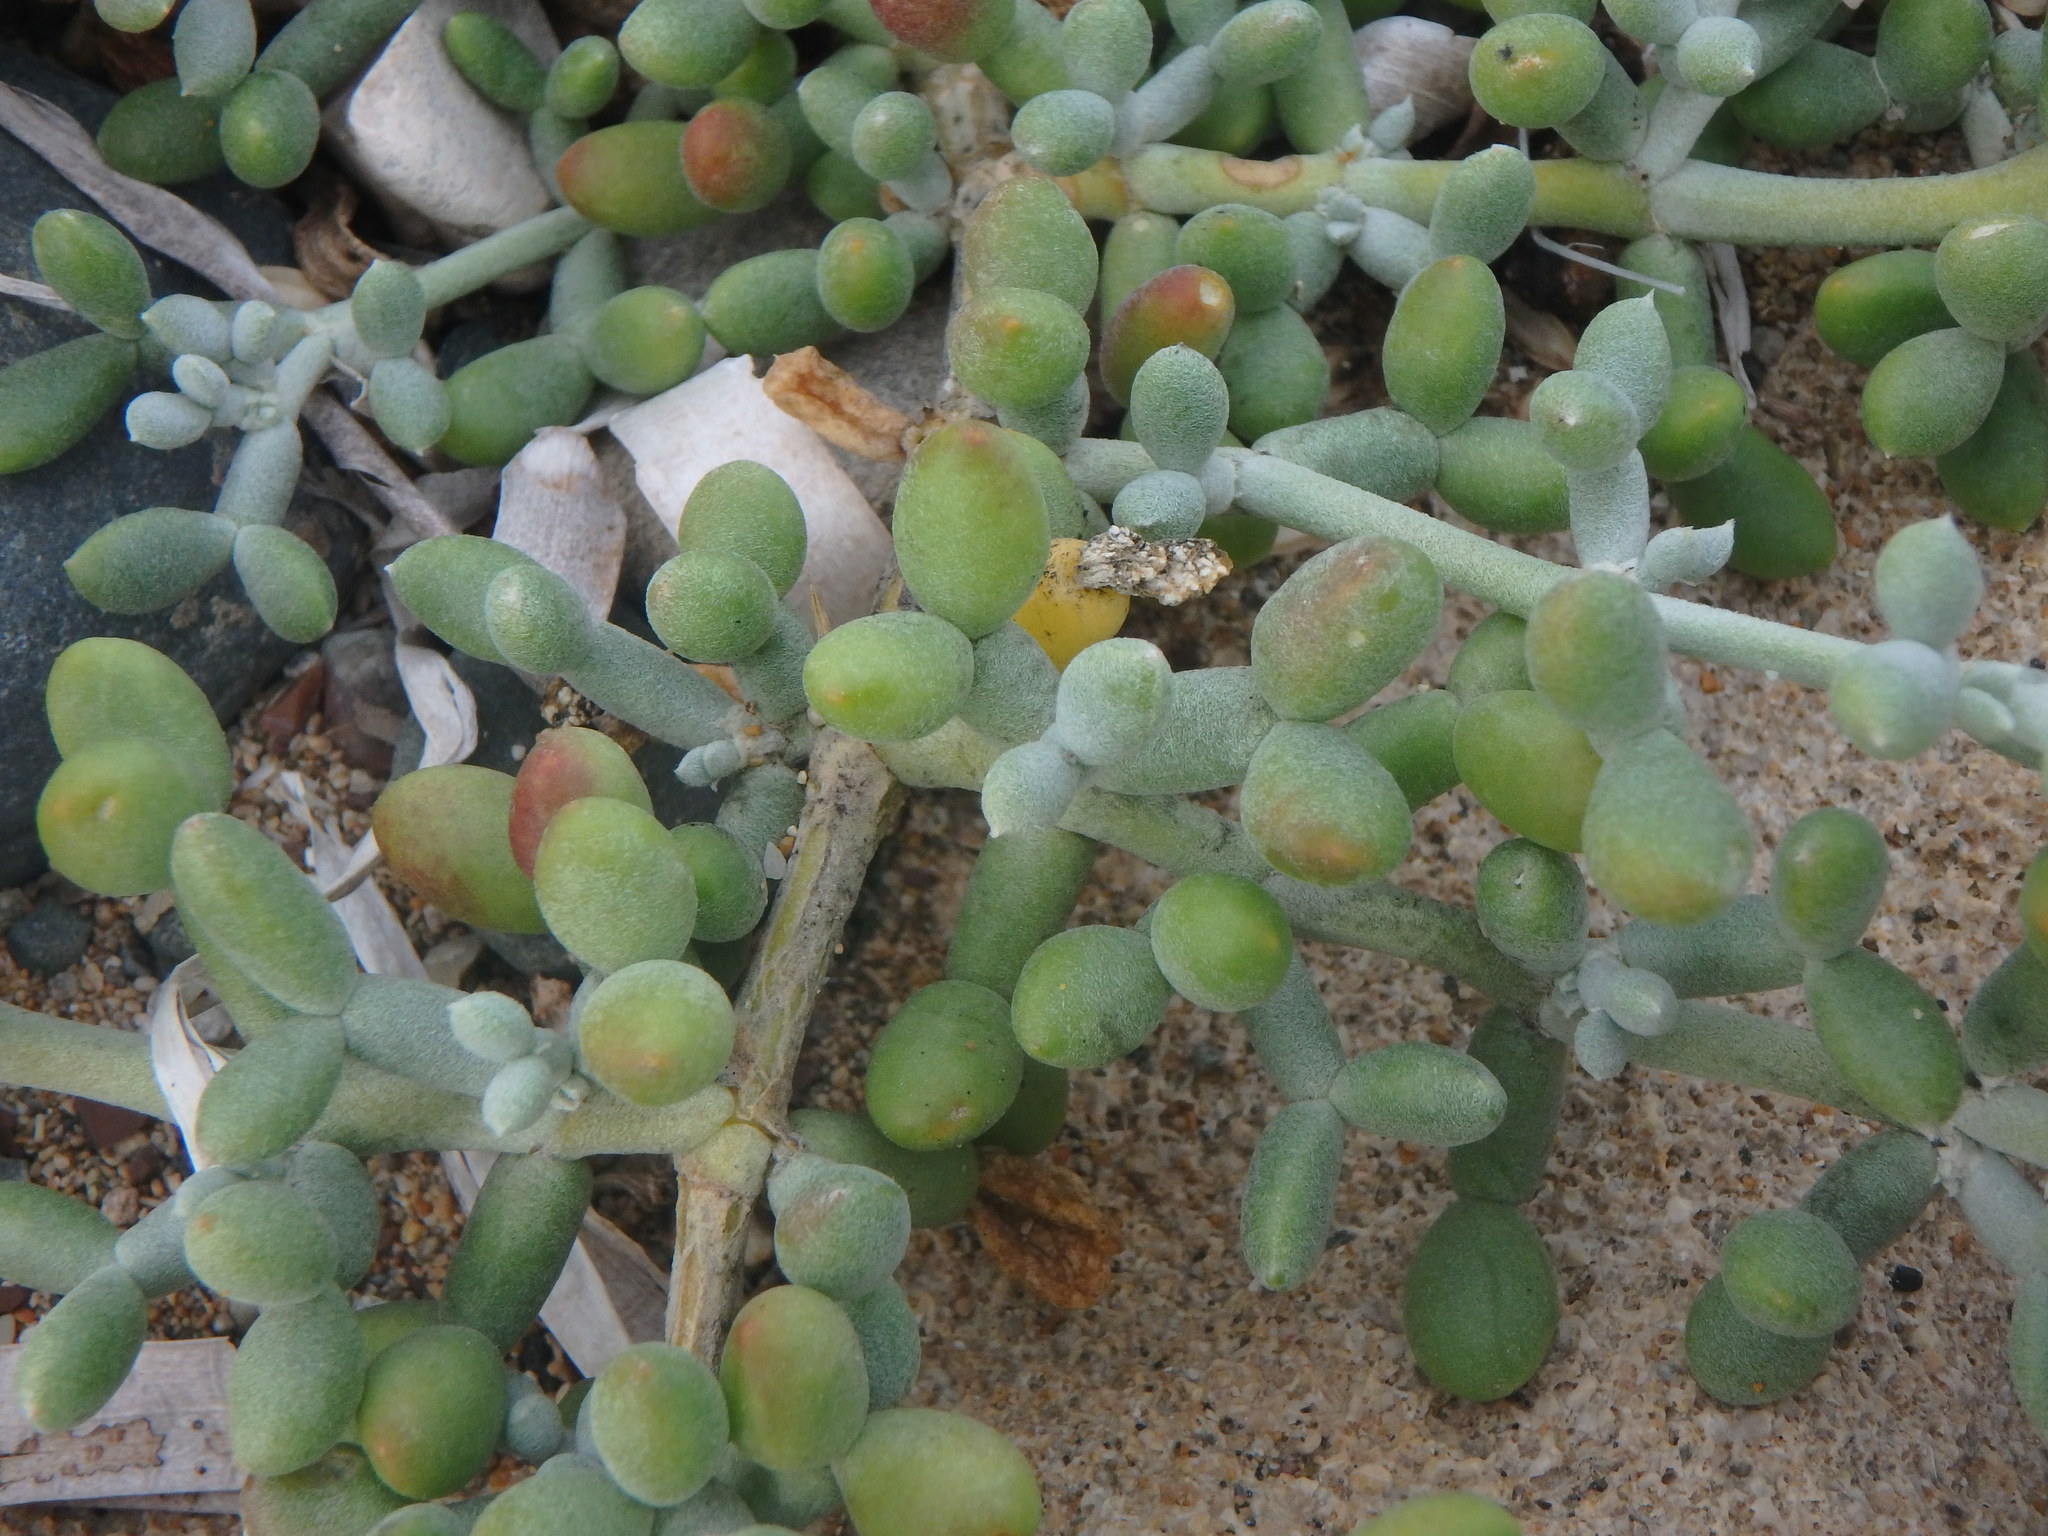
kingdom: Plantae
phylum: Tracheophyta
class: Magnoliopsida
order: Zygophyllales
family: Zygophyllaceae
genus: Tetraena
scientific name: Tetraena alba
